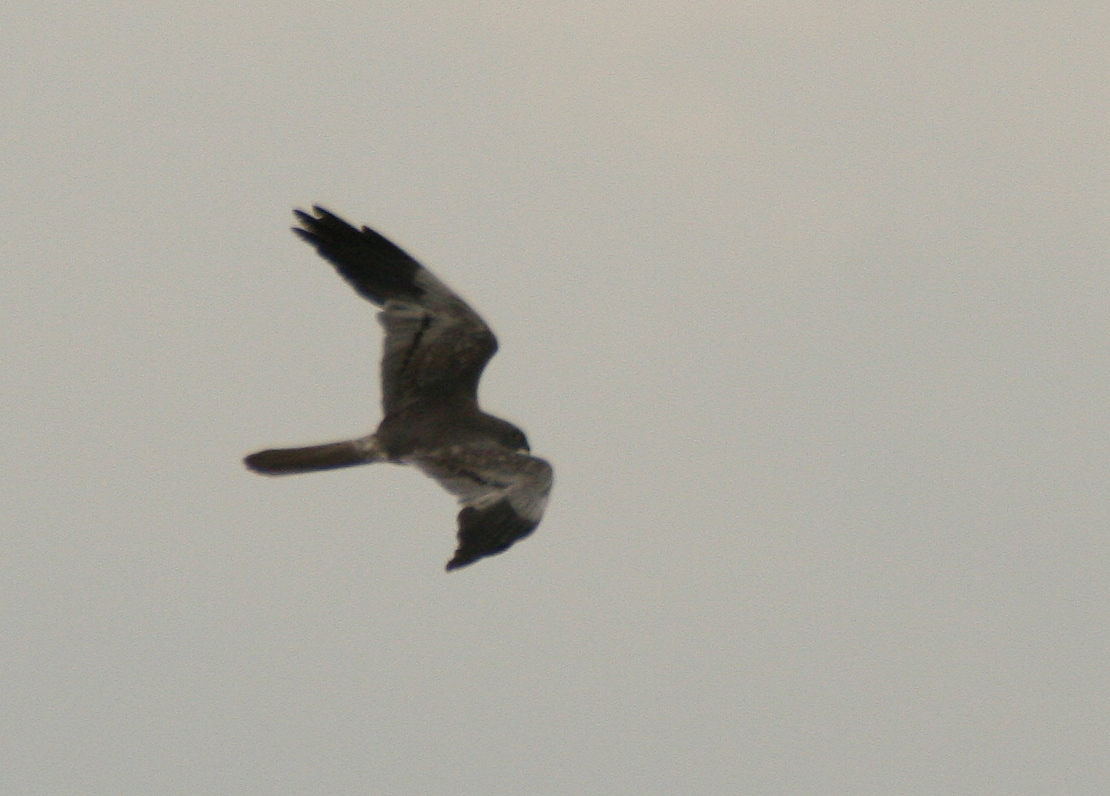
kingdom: Animalia
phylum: Chordata
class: Aves
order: Accipitriformes
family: Accipitridae
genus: Circus
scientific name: Circus pygargus
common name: Montagu's harrier
